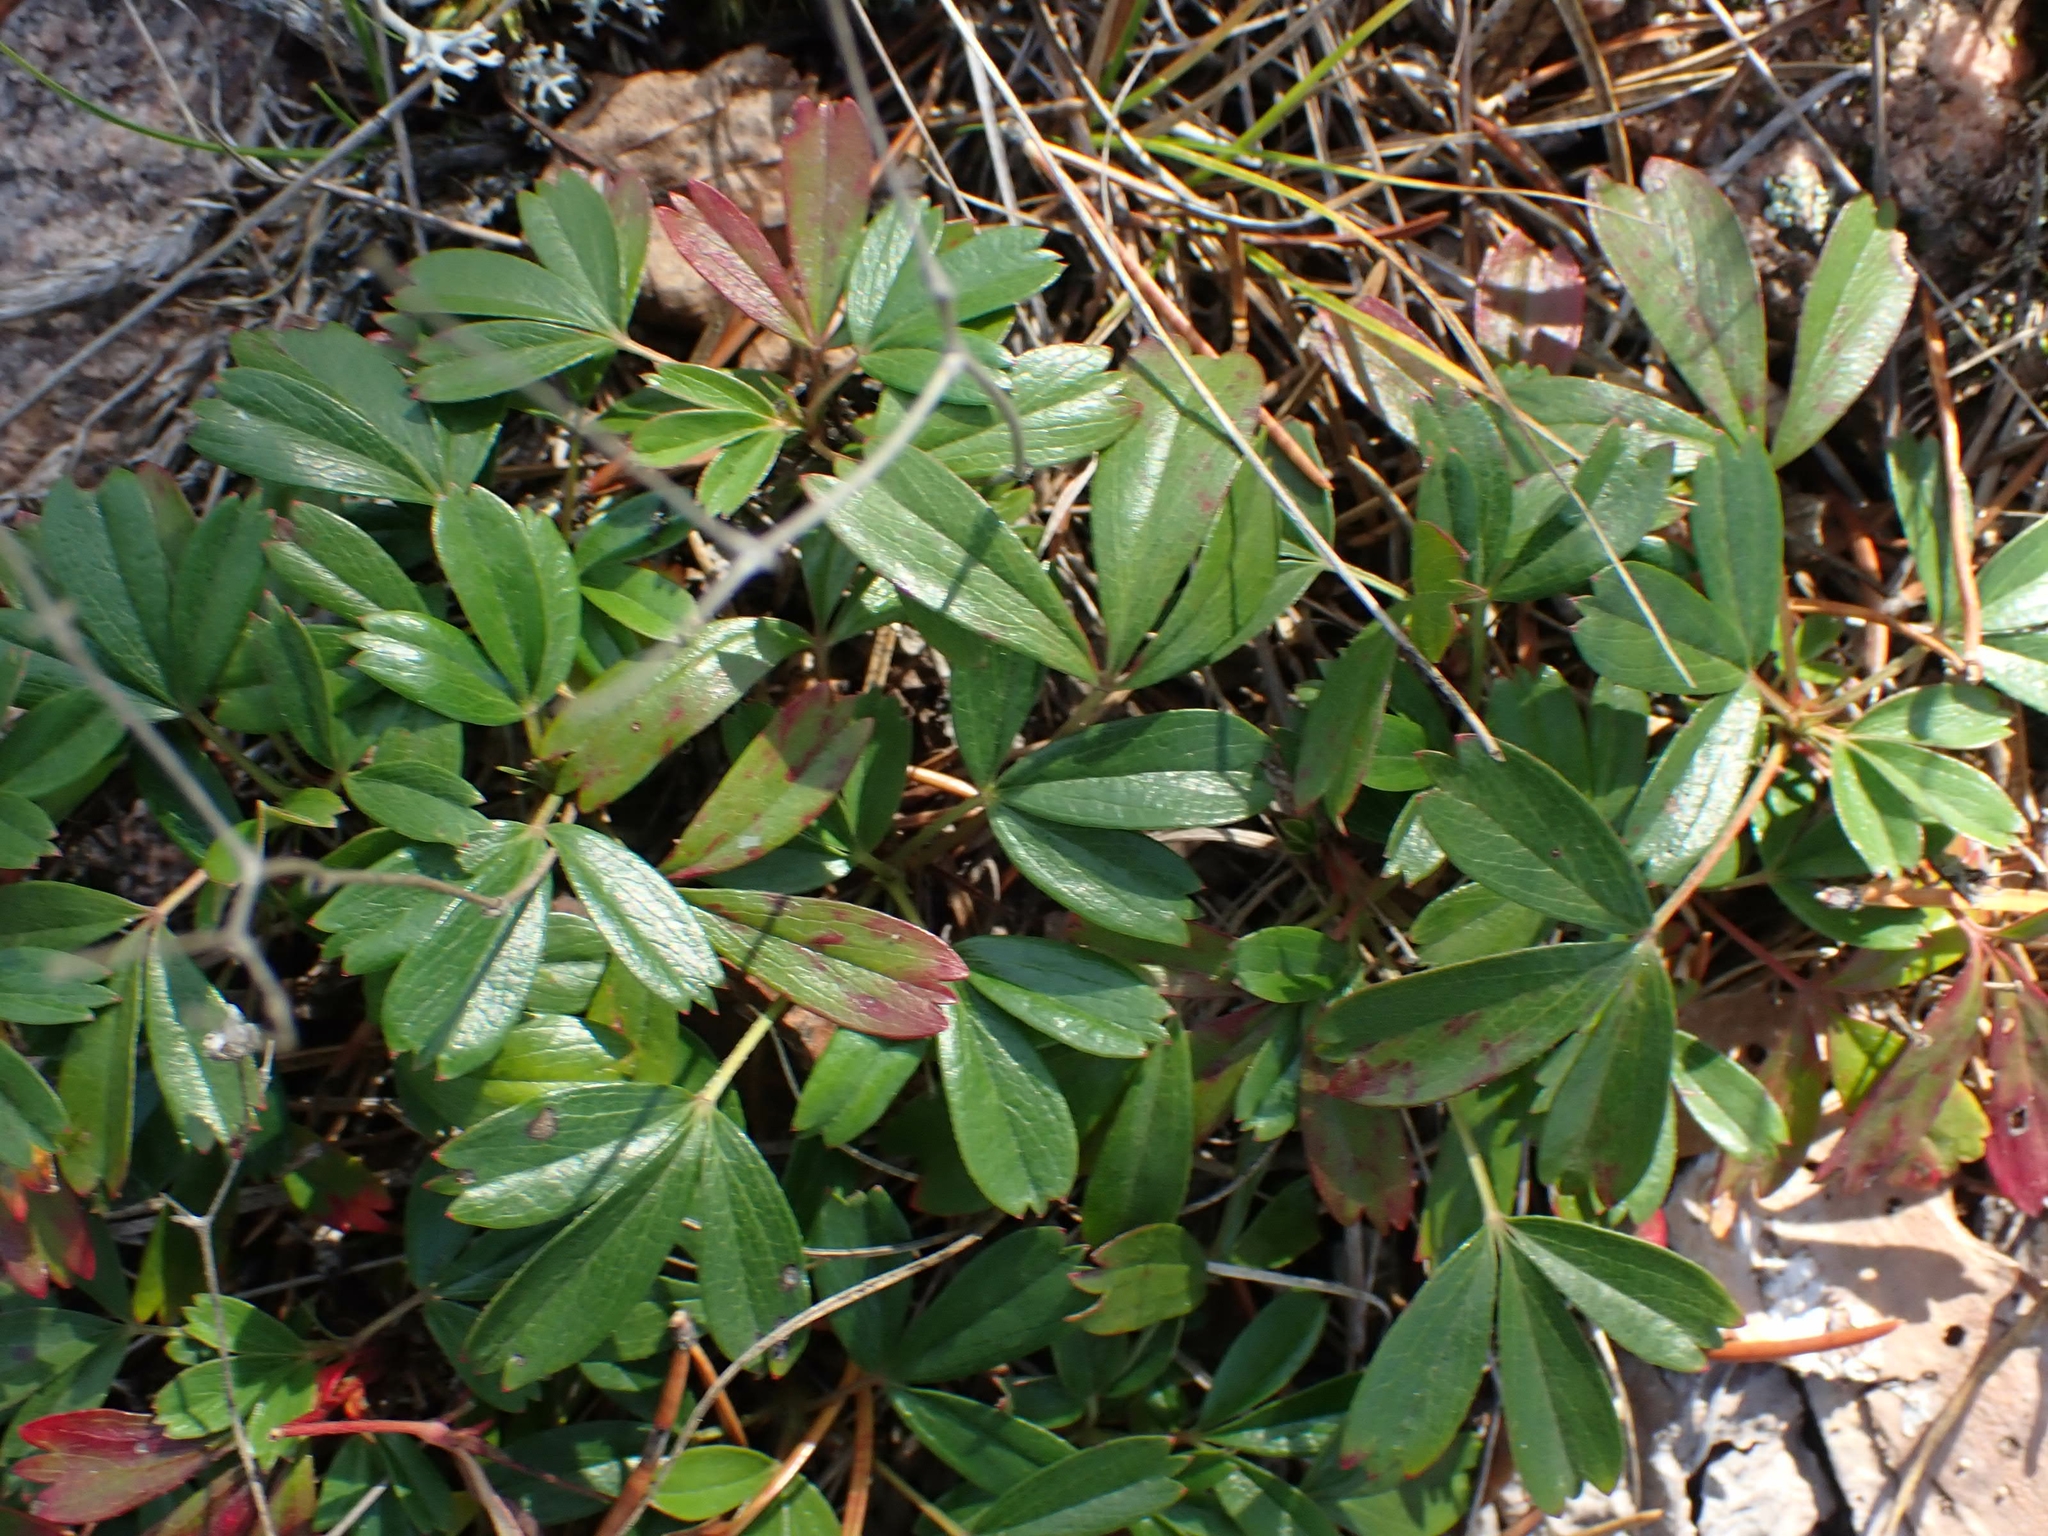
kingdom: Plantae
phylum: Tracheophyta
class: Magnoliopsida
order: Rosales
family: Rosaceae
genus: Sibbaldia
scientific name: Sibbaldia tridentata
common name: Three-toothed cinquefoil
